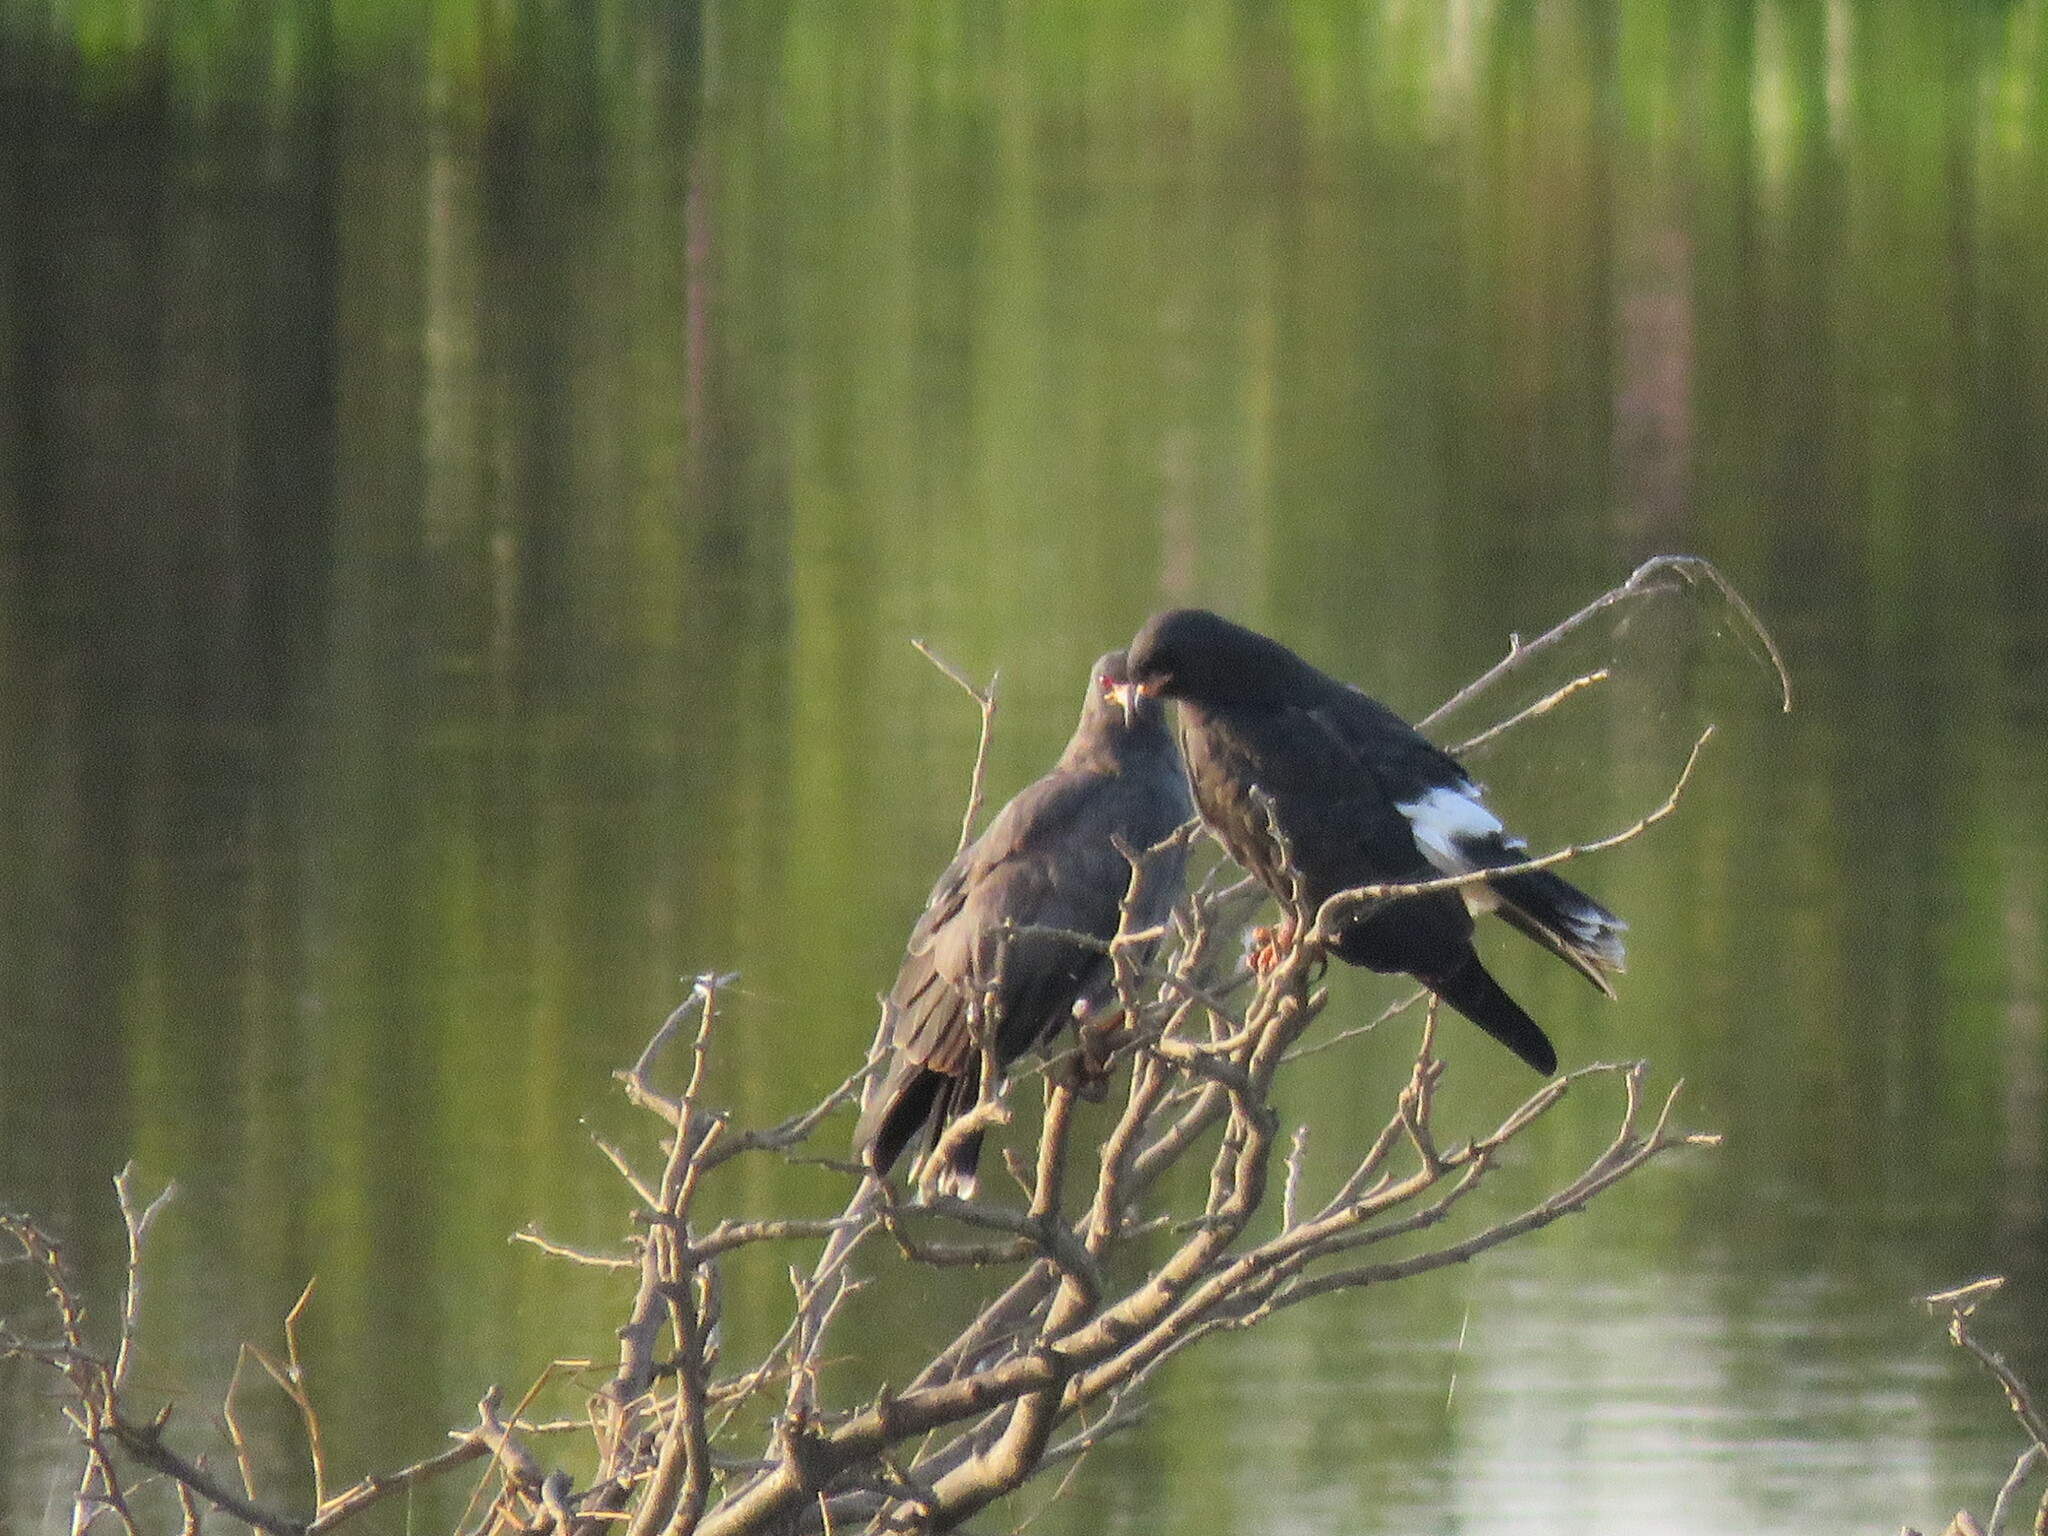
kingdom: Animalia
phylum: Chordata
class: Aves
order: Accipitriformes
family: Accipitridae
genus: Rostrhamus
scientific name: Rostrhamus sociabilis
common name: Snail kite
